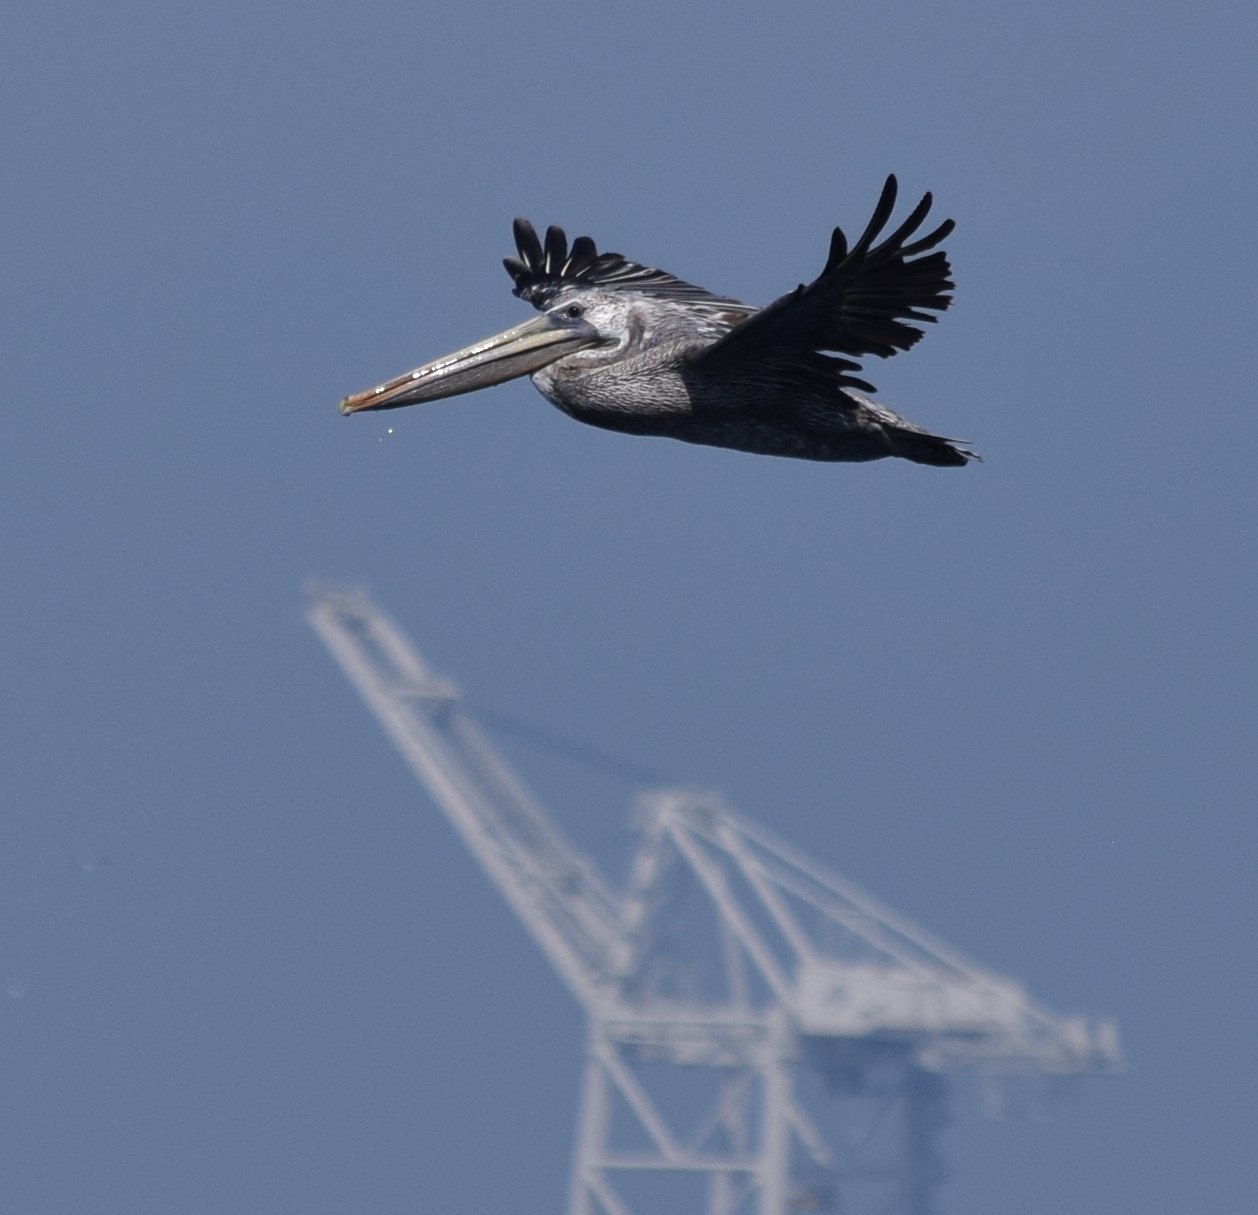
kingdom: Animalia
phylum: Chordata
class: Aves
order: Pelecaniformes
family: Pelecanidae
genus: Pelecanus
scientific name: Pelecanus occidentalis
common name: Brown pelican
